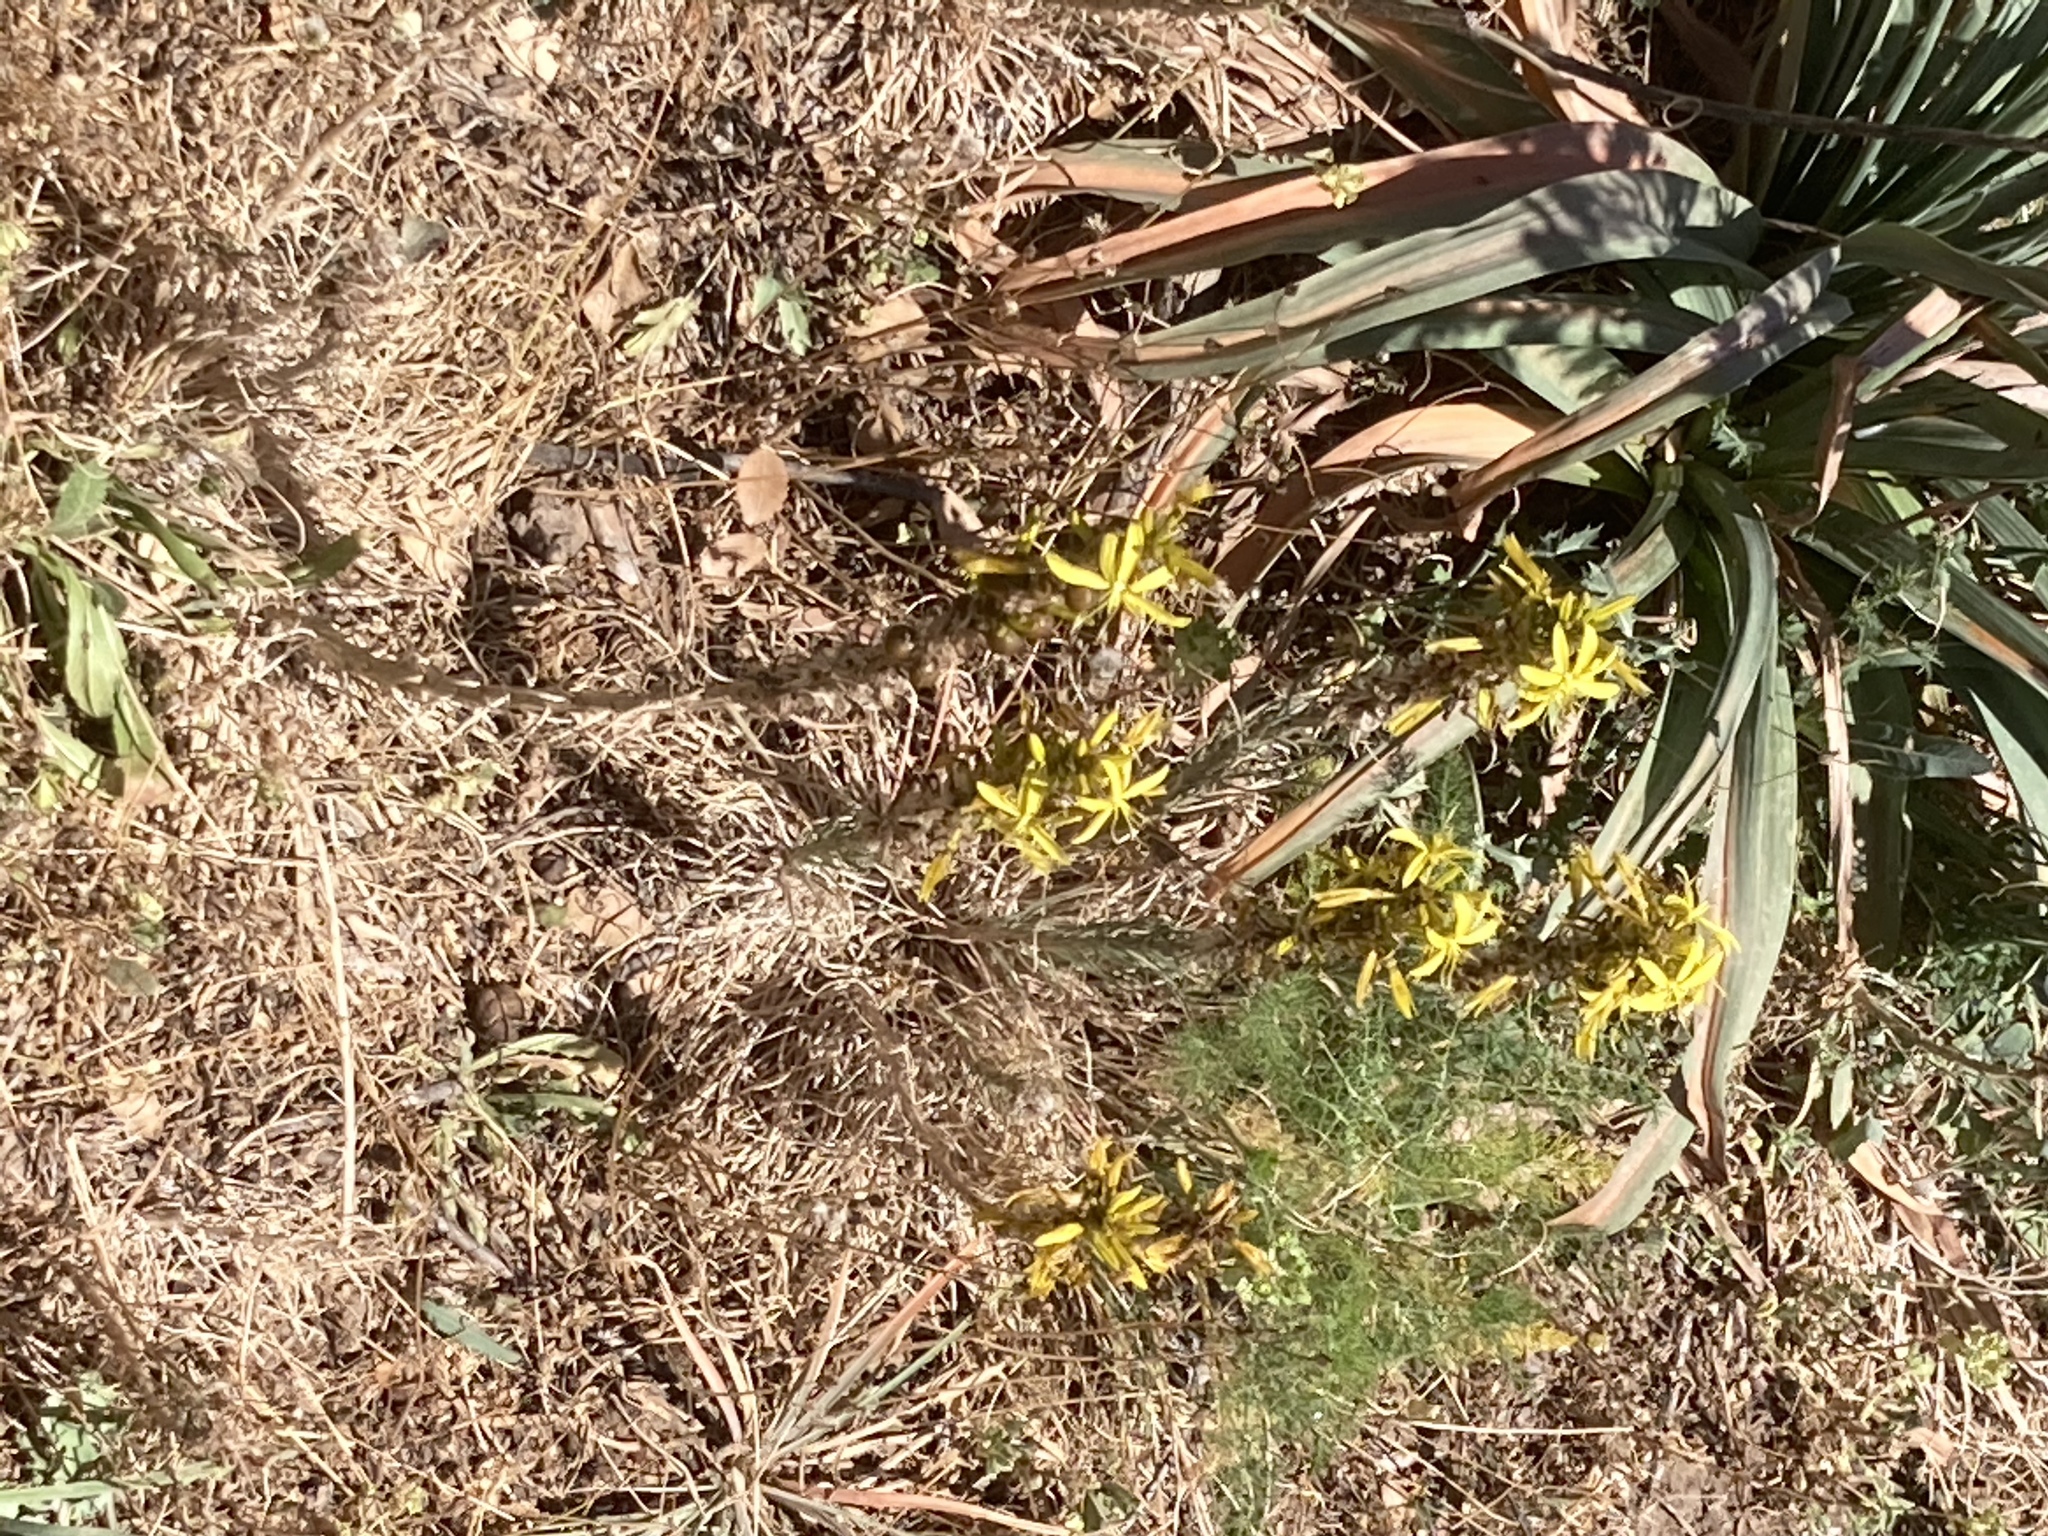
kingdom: Plantae
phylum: Tracheophyta
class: Liliopsida
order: Asparagales
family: Asphodelaceae
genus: Asphodeline
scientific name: Asphodeline lutea
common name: Yellow asphodel
